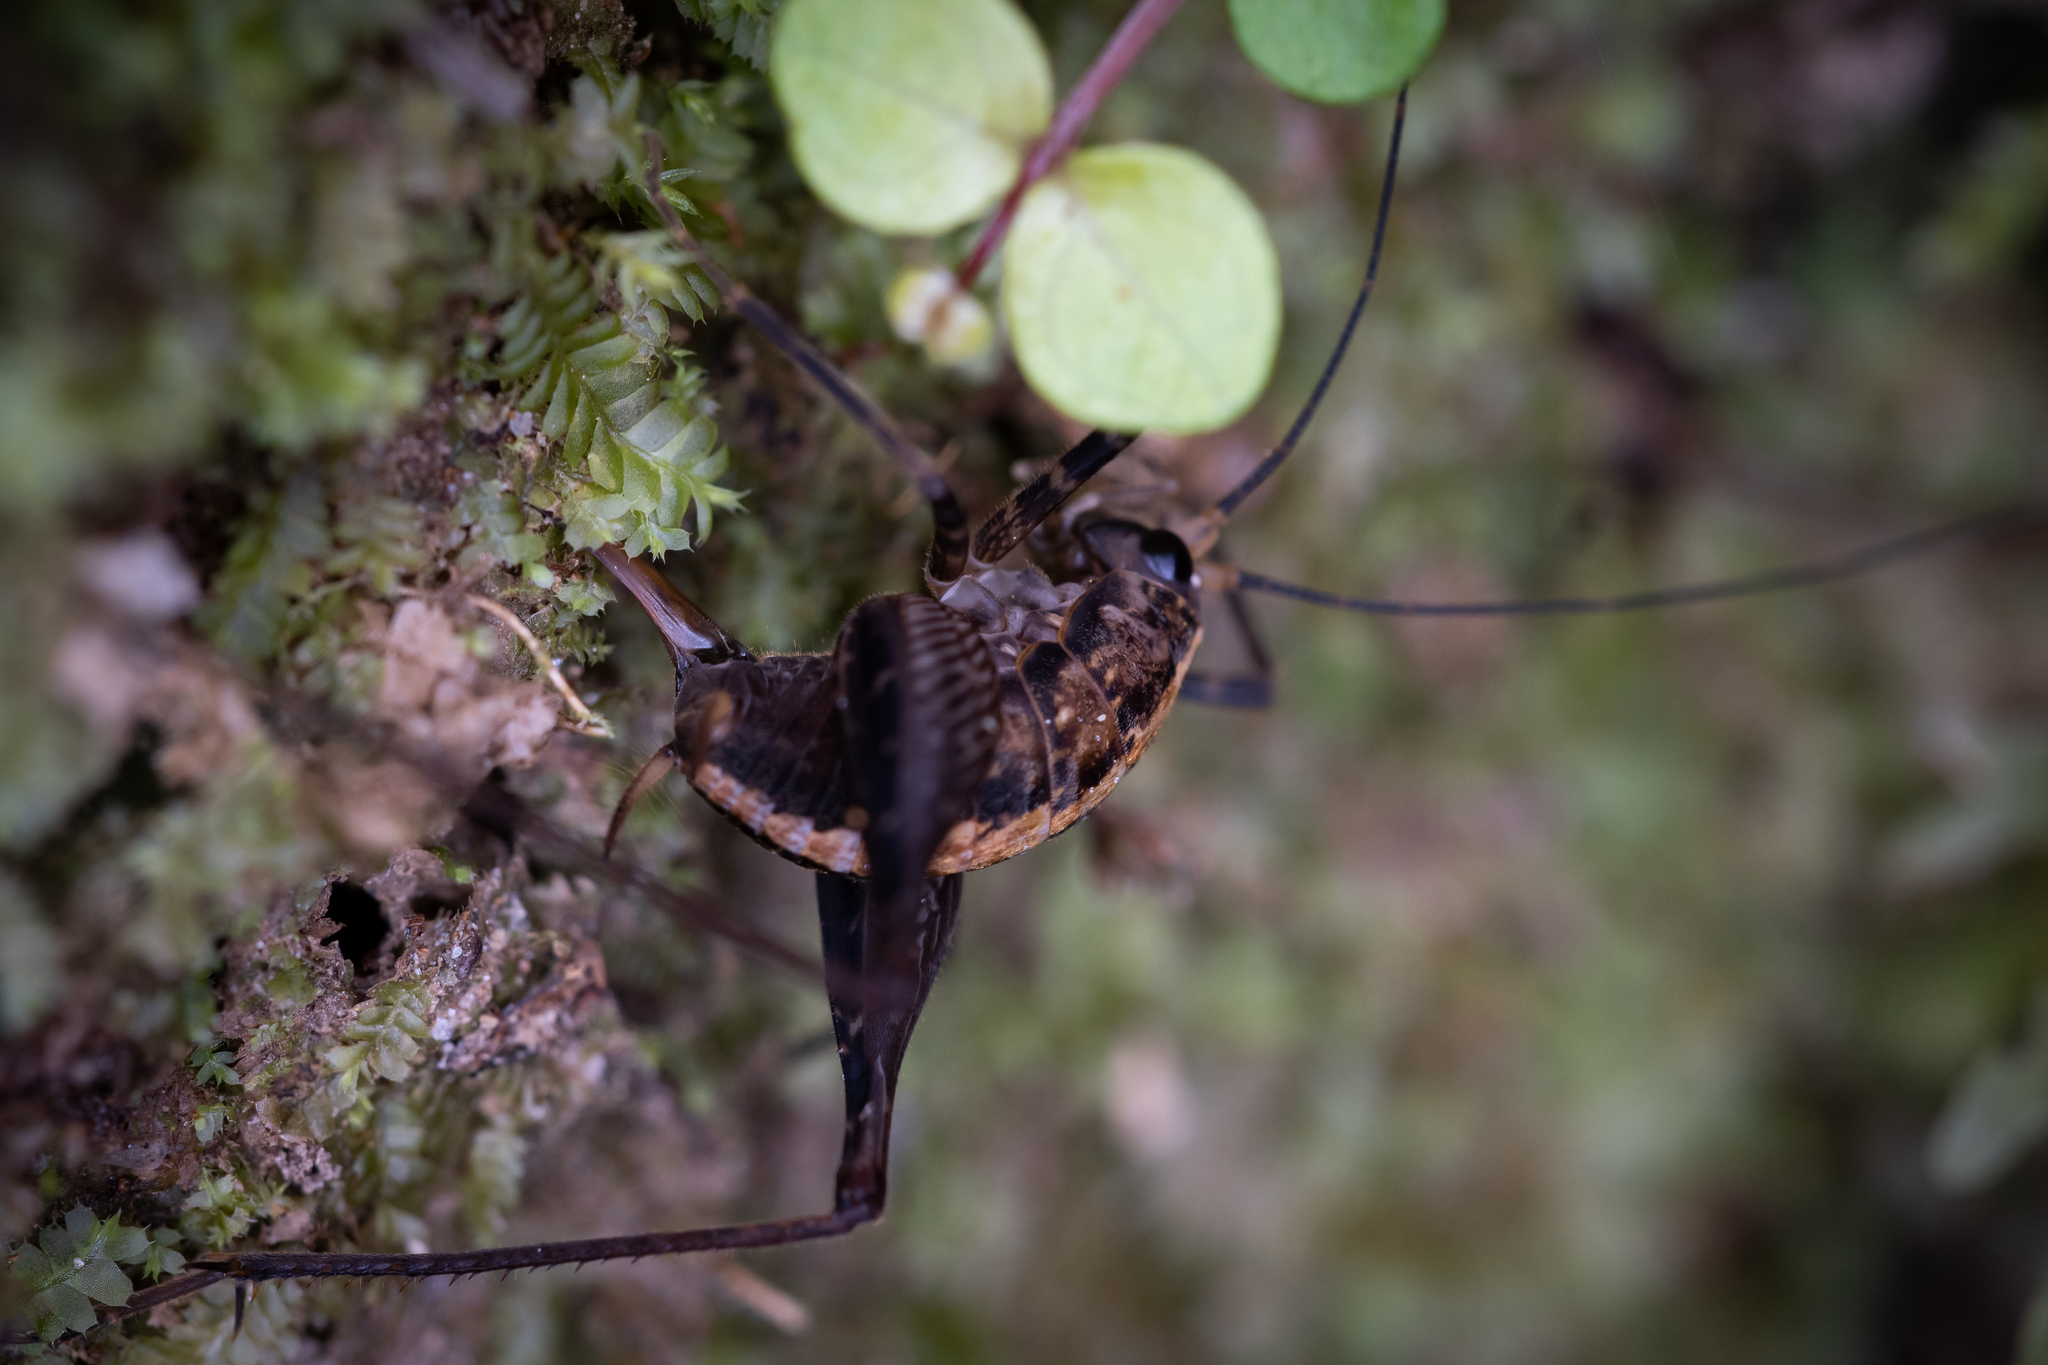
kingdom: Animalia
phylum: Arthropoda
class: Insecta
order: Orthoptera
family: Rhaphidophoridae
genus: Pleioplectron
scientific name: Pleioplectron hudsoni
